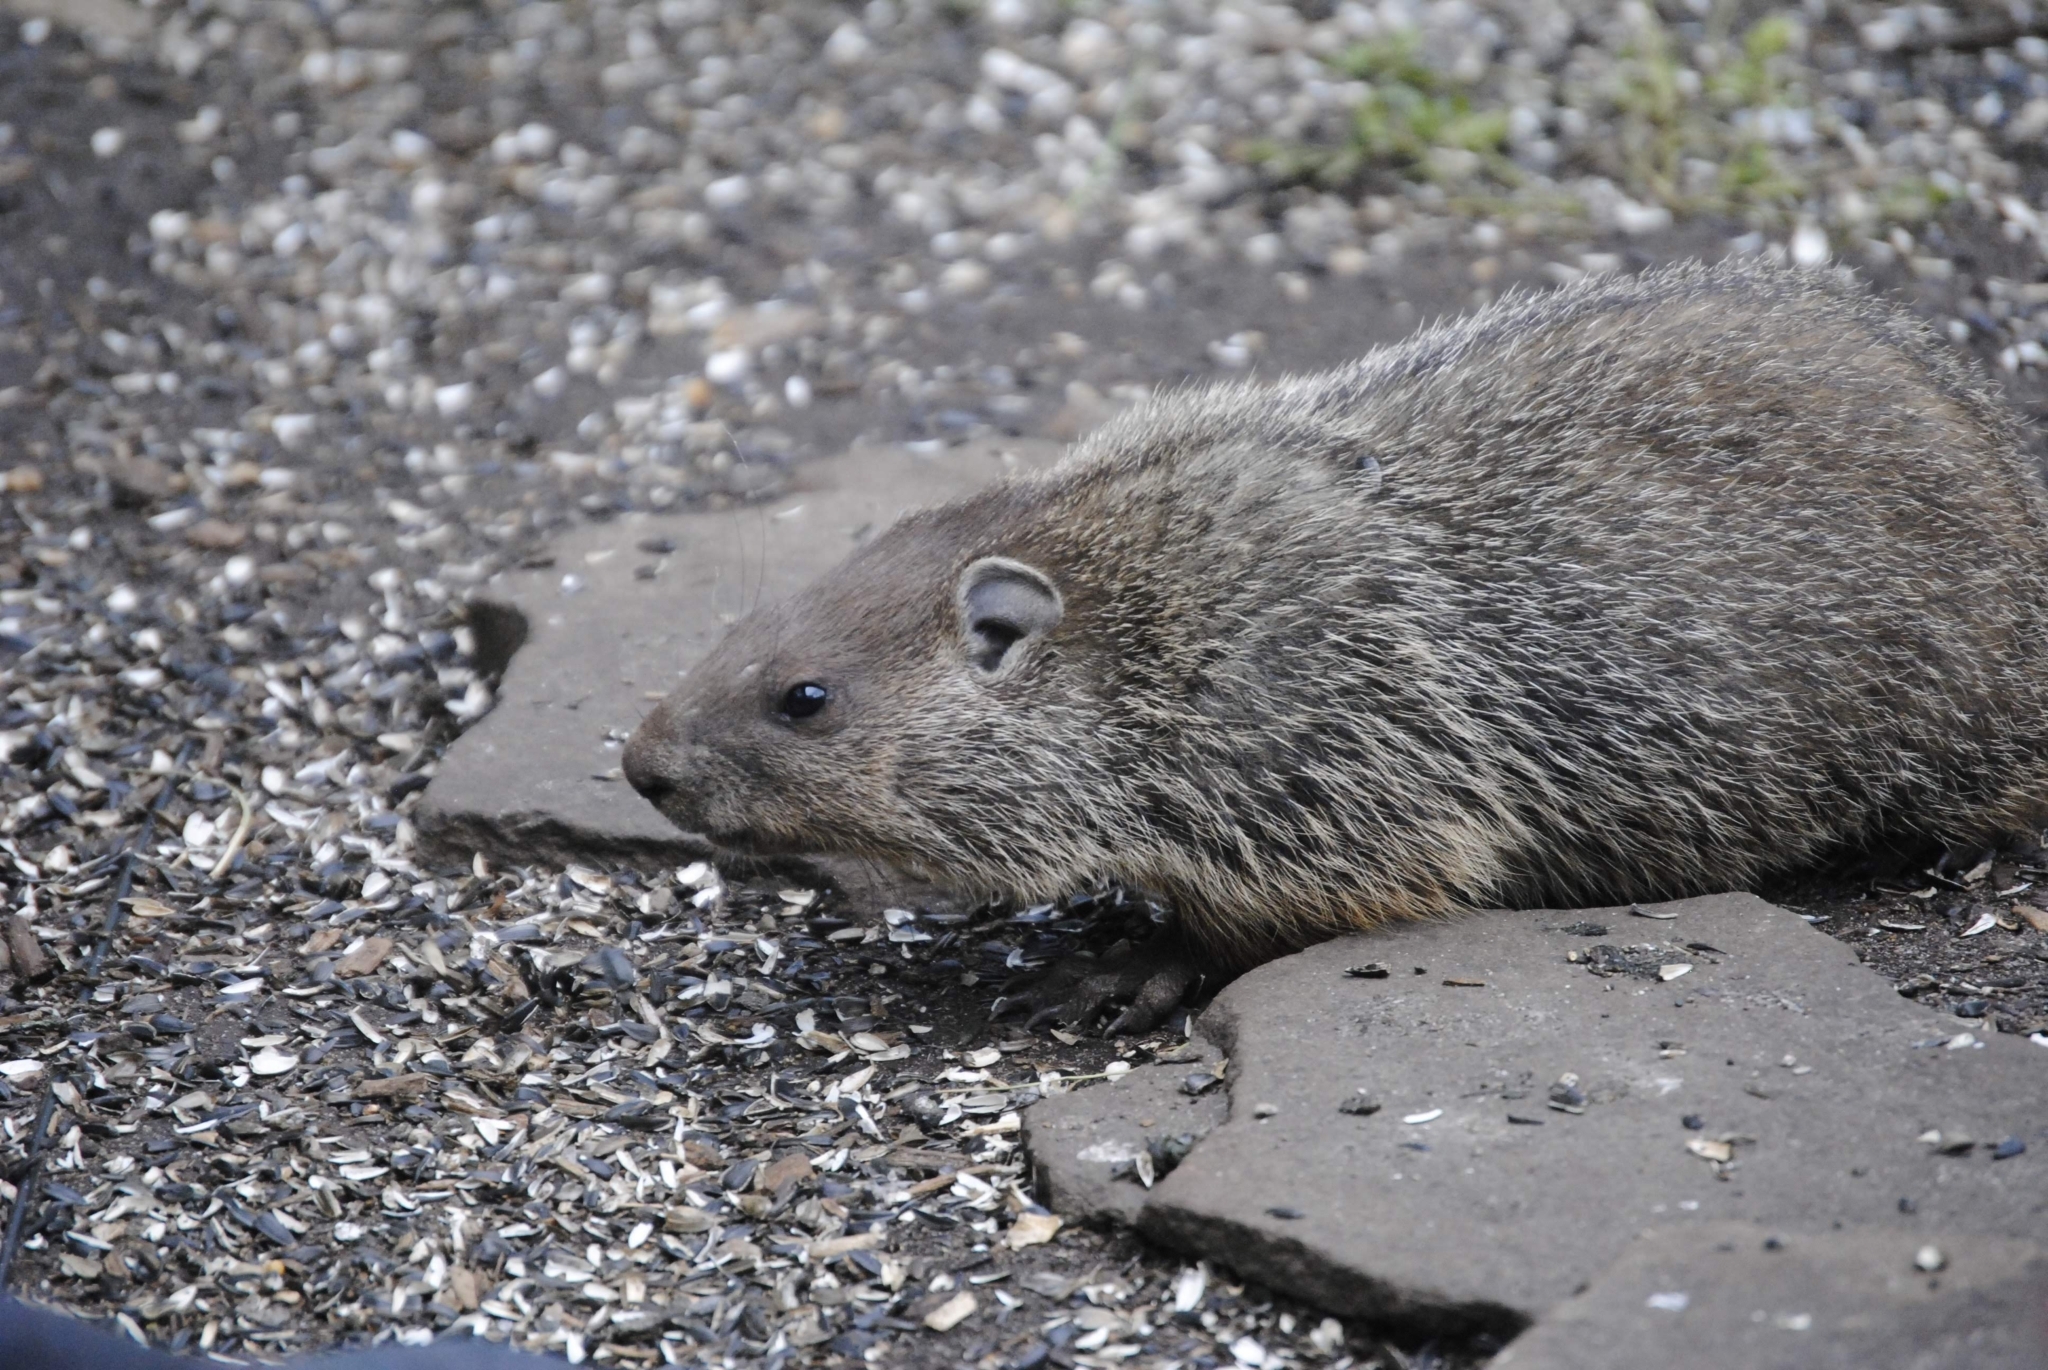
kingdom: Animalia
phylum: Chordata
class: Mammalia
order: Rodentia
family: Sciuridae
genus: Marmota
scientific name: Marmota monax
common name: Groundhog
